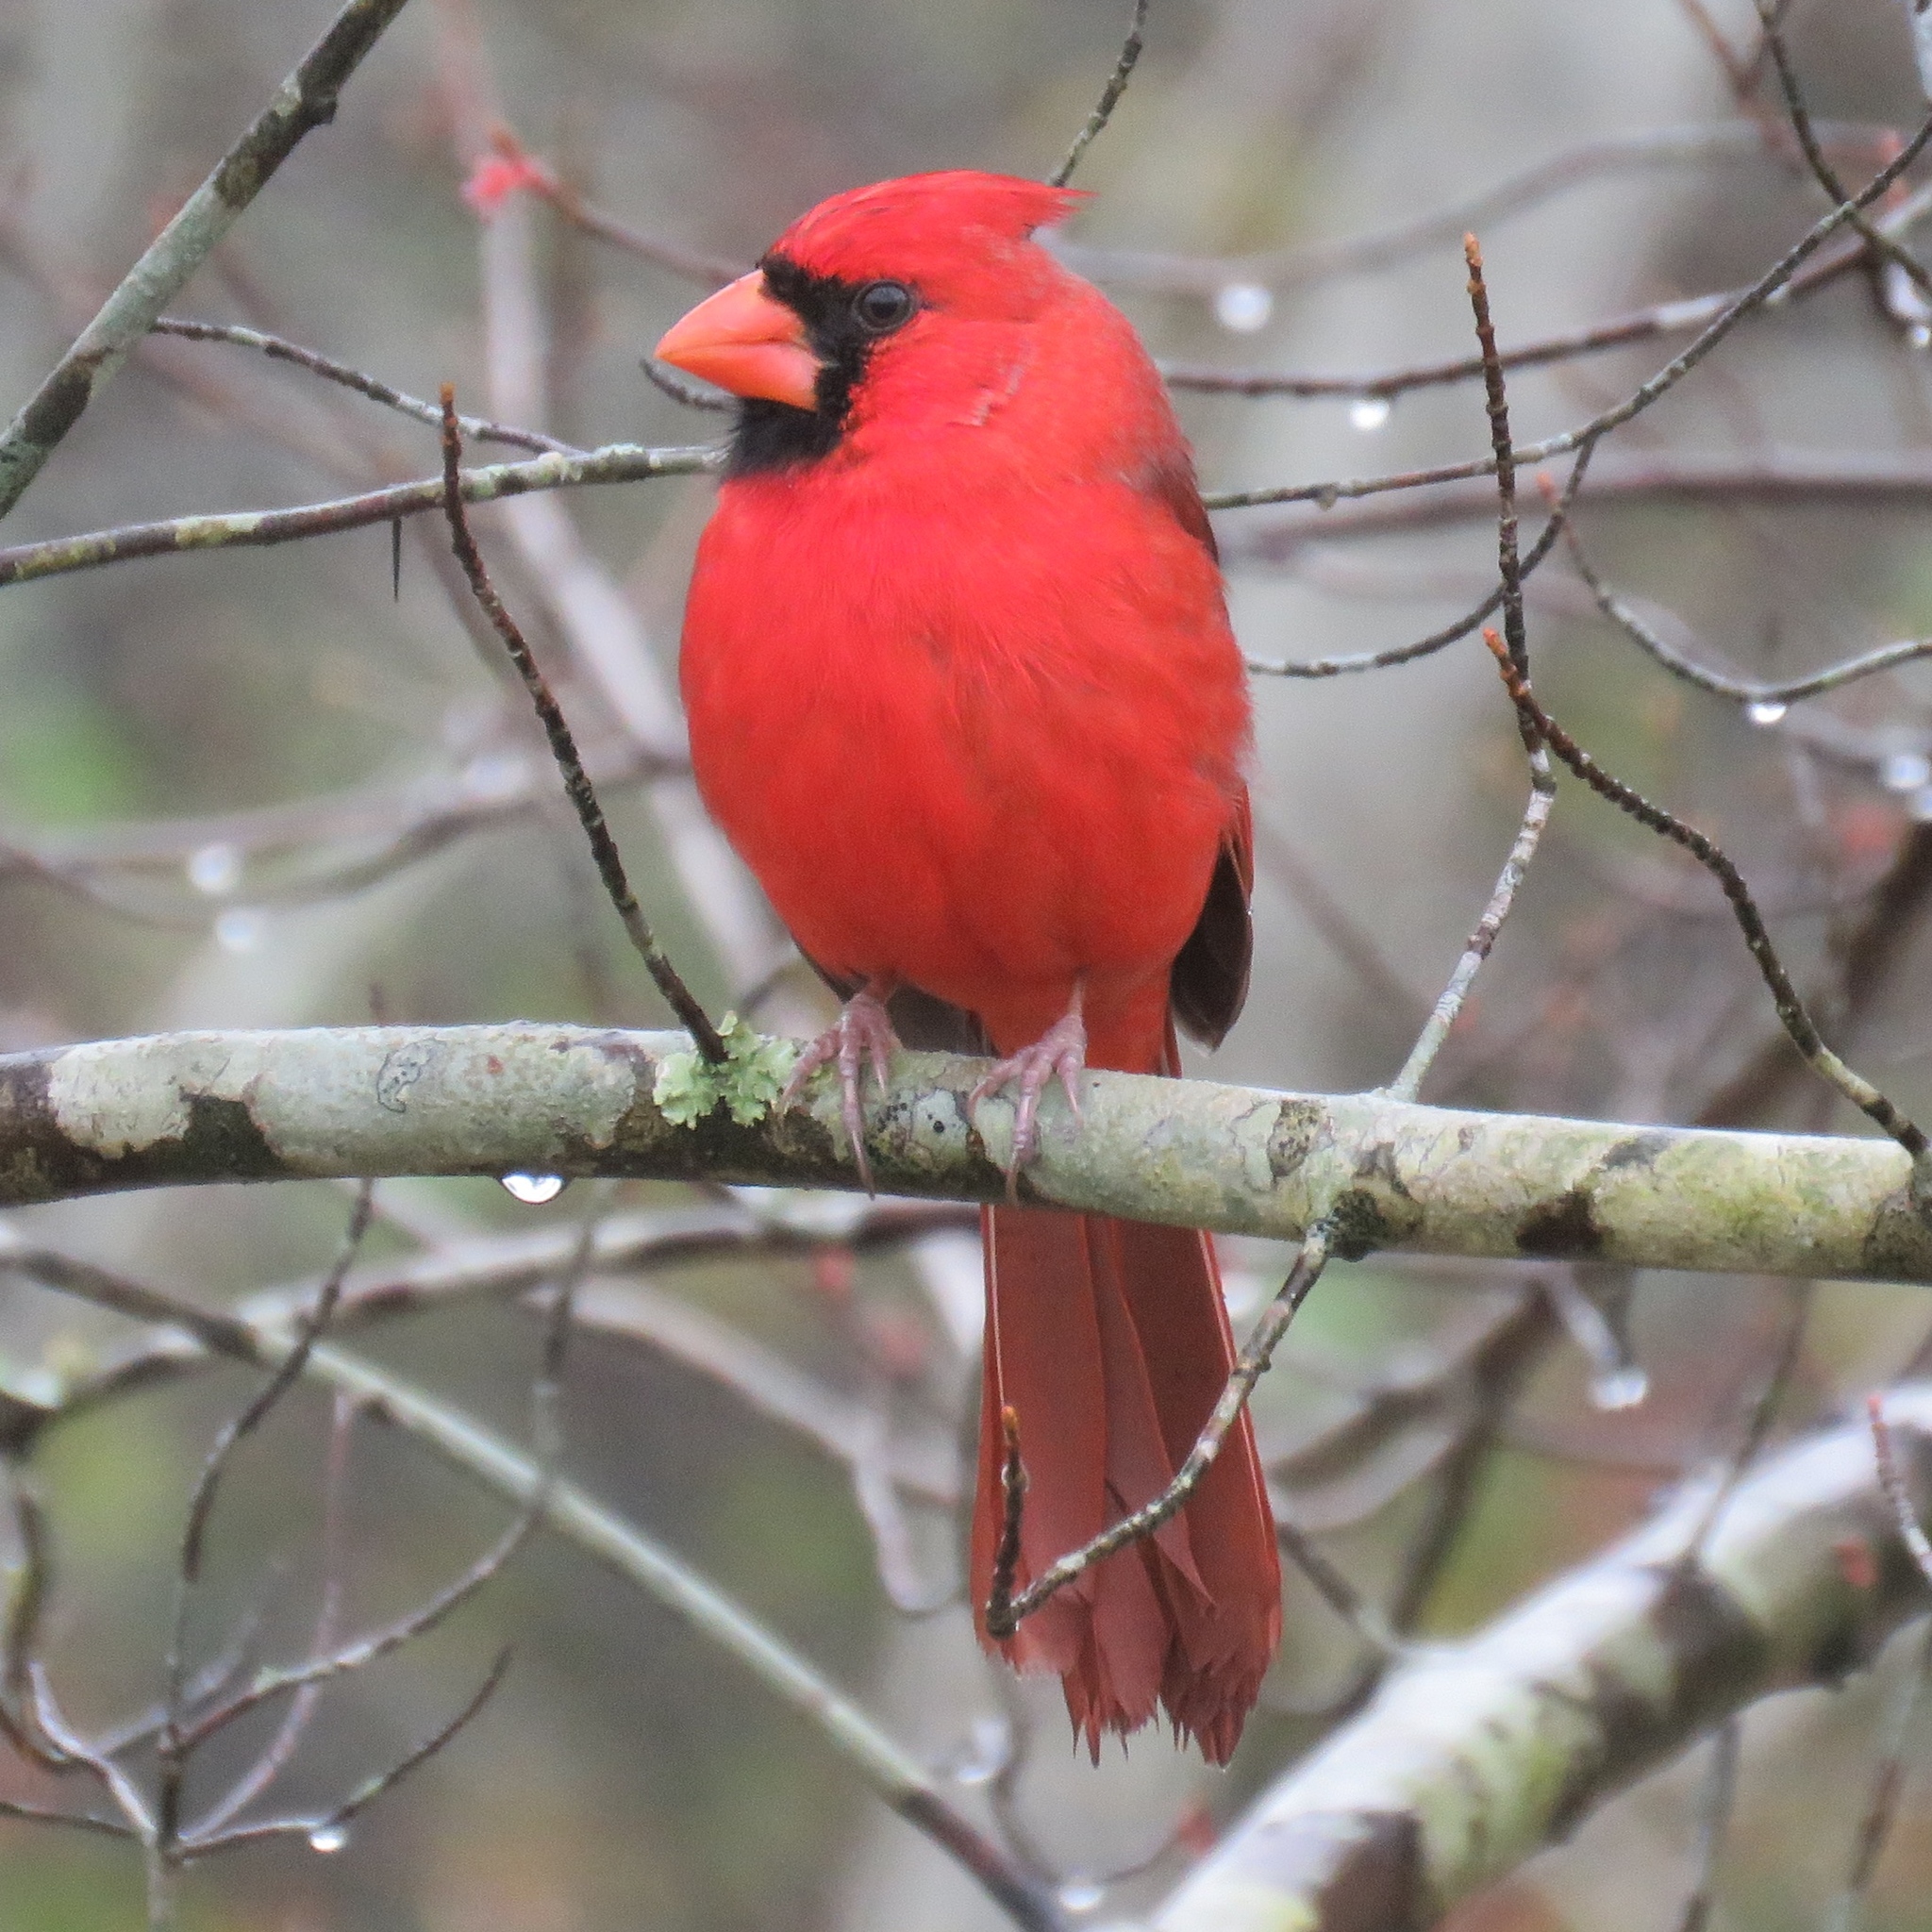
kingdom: Animalia
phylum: Chordata
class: Aves
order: Passeriformes
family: Cardinalidae
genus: Cardinalis
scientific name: Cardinalis cardinalis
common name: Northern cardinal
